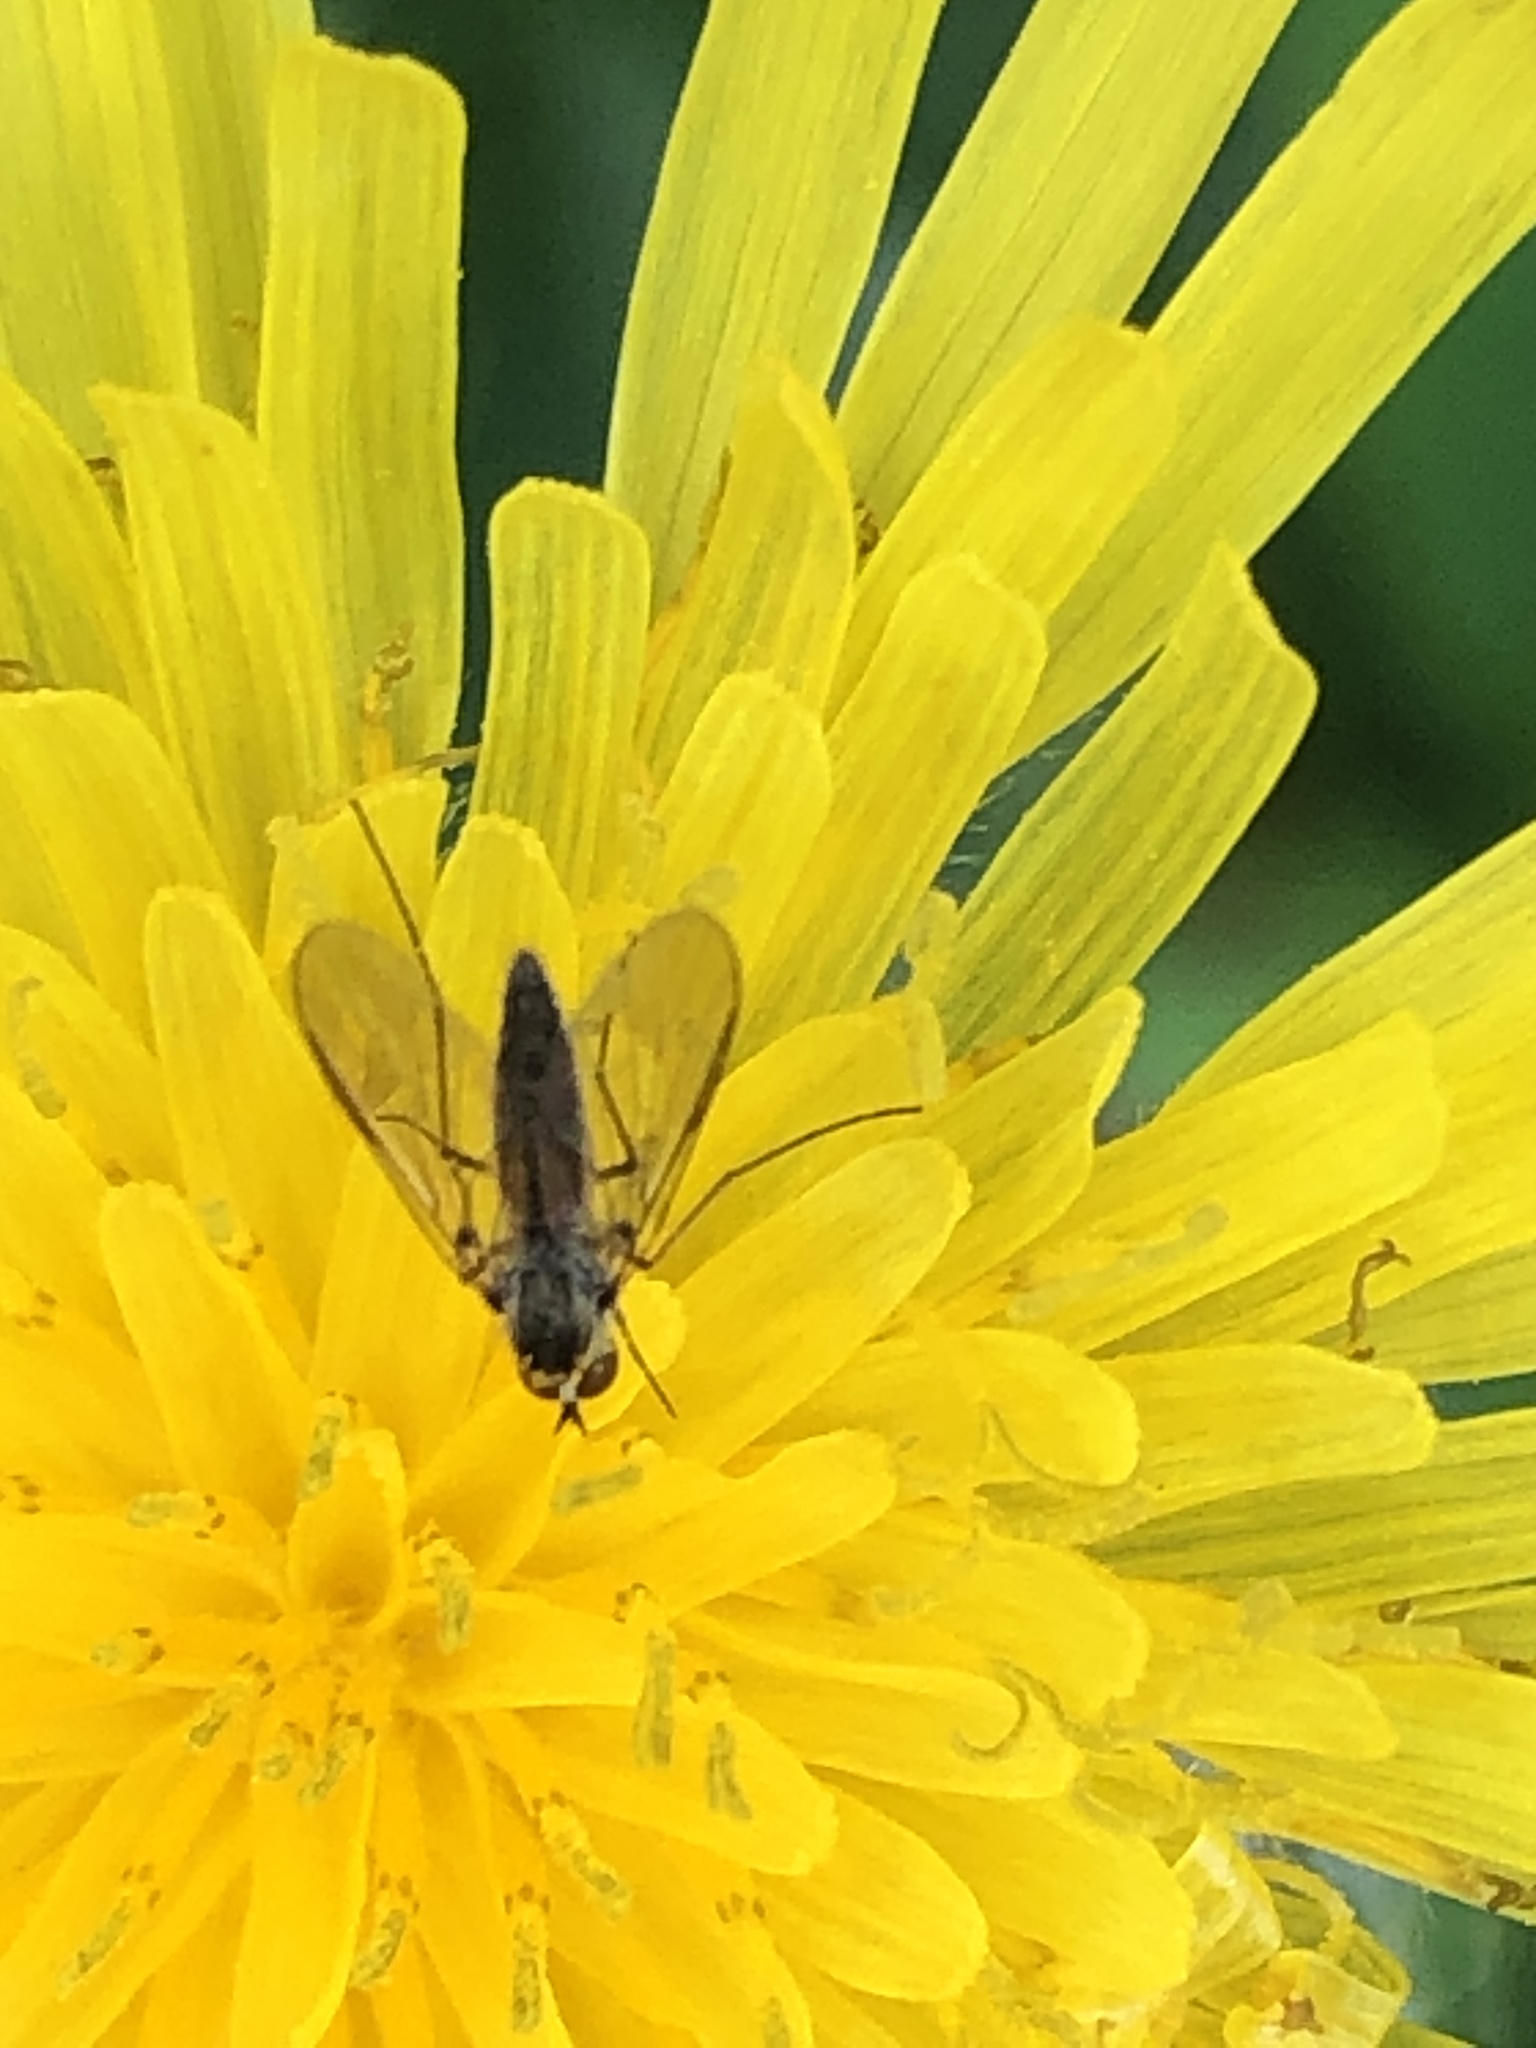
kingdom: Animalia
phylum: Arthropoda
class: Insecta
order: Diptera
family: Bombyliidae
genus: Geron
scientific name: Geron calvus
